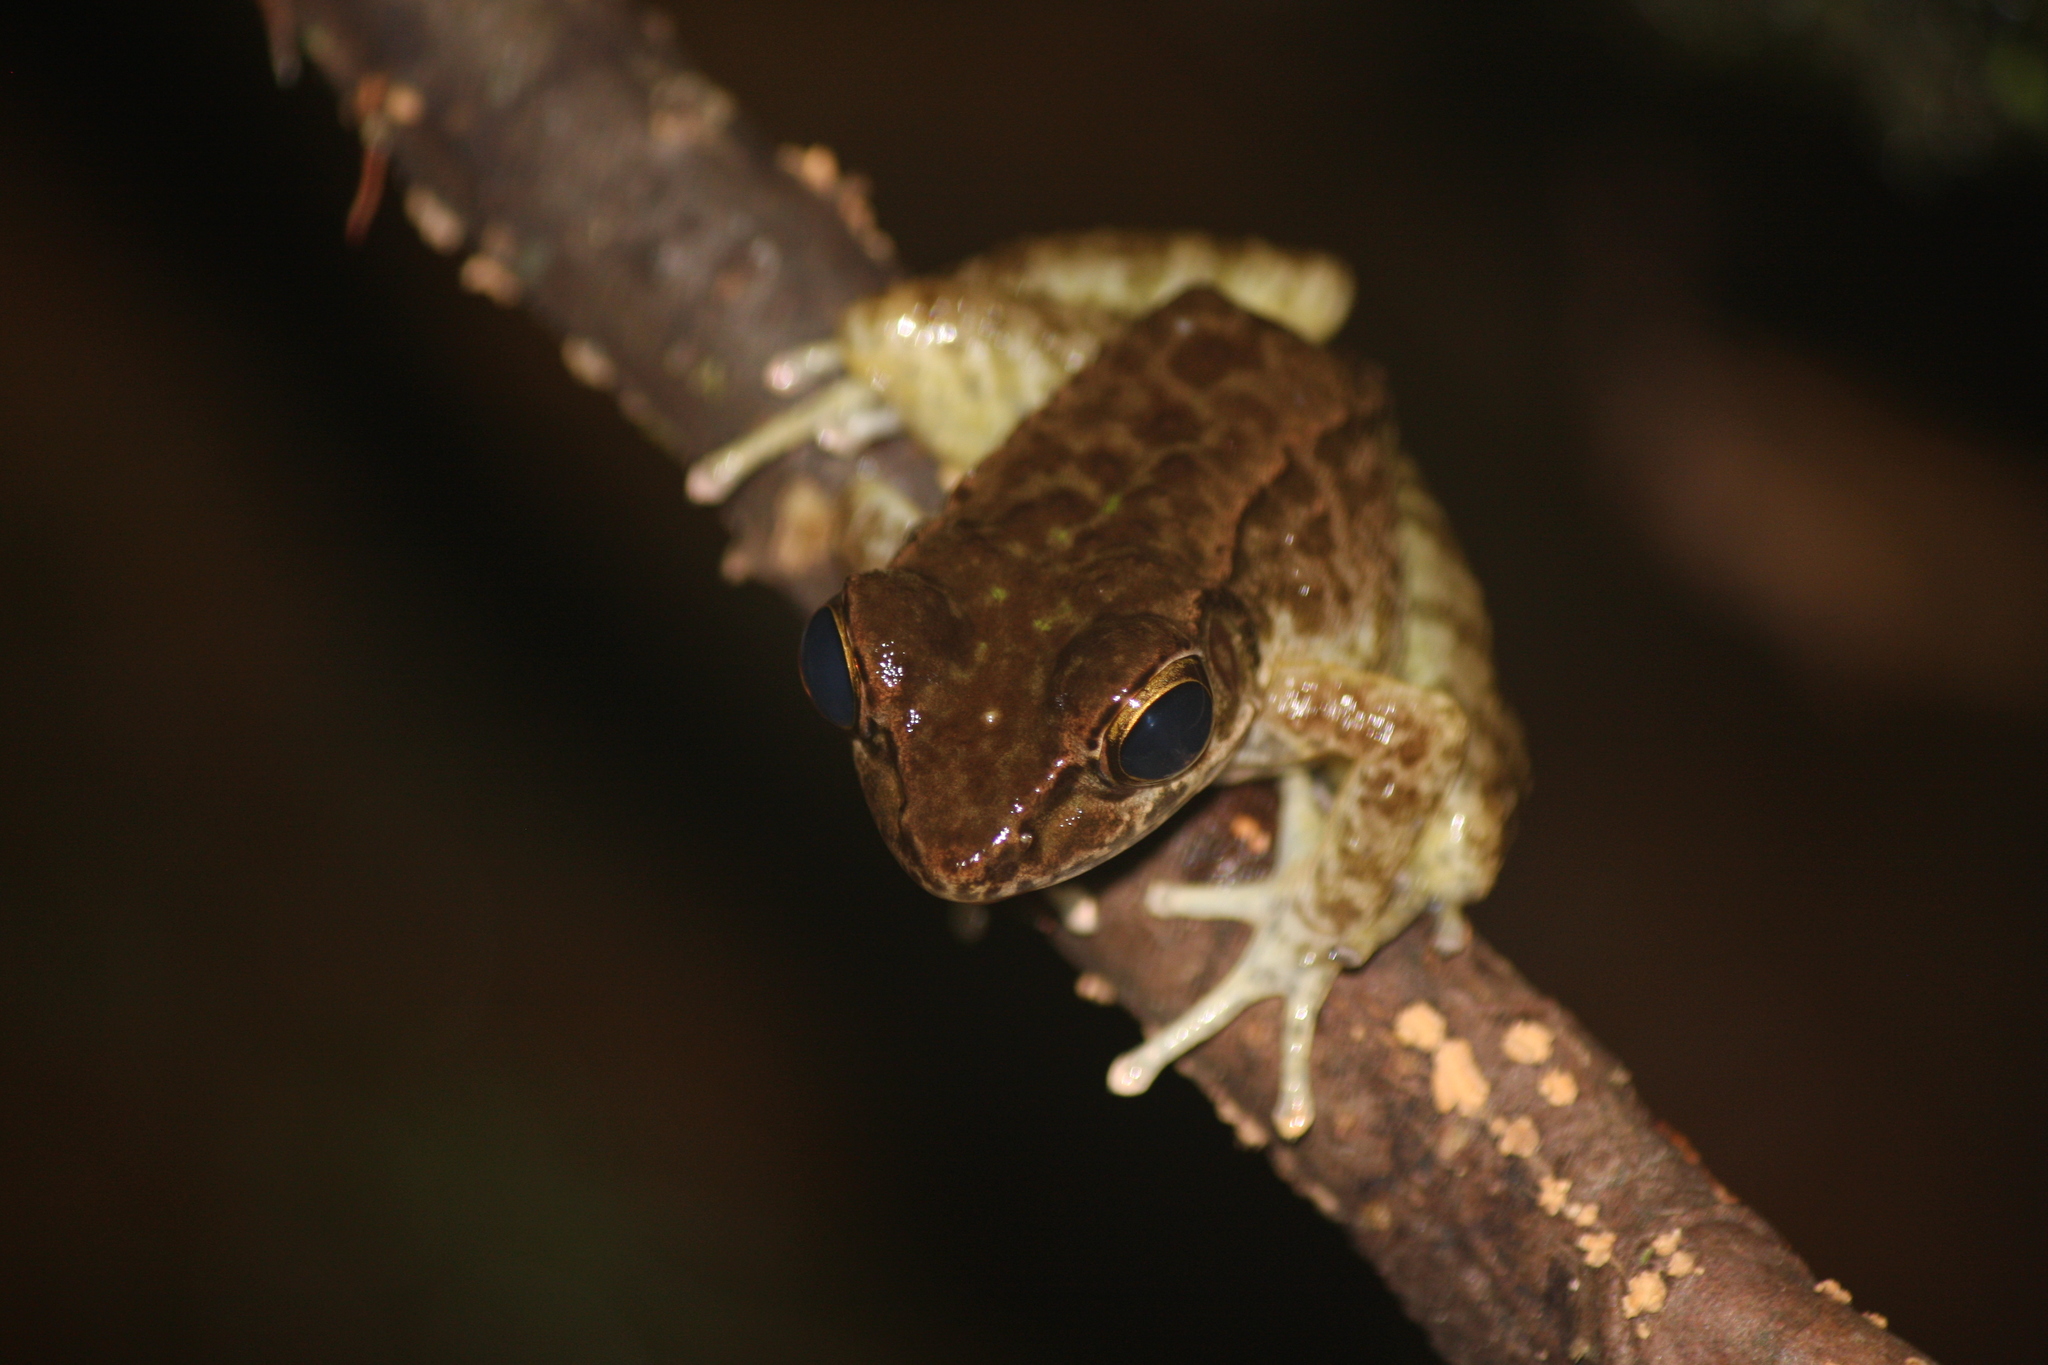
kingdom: Animalia
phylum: Chordata
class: Amphibia
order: Anura
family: Ranidae
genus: Odorrana
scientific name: Odorrana supranarina
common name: Greater tip-nosed frog
